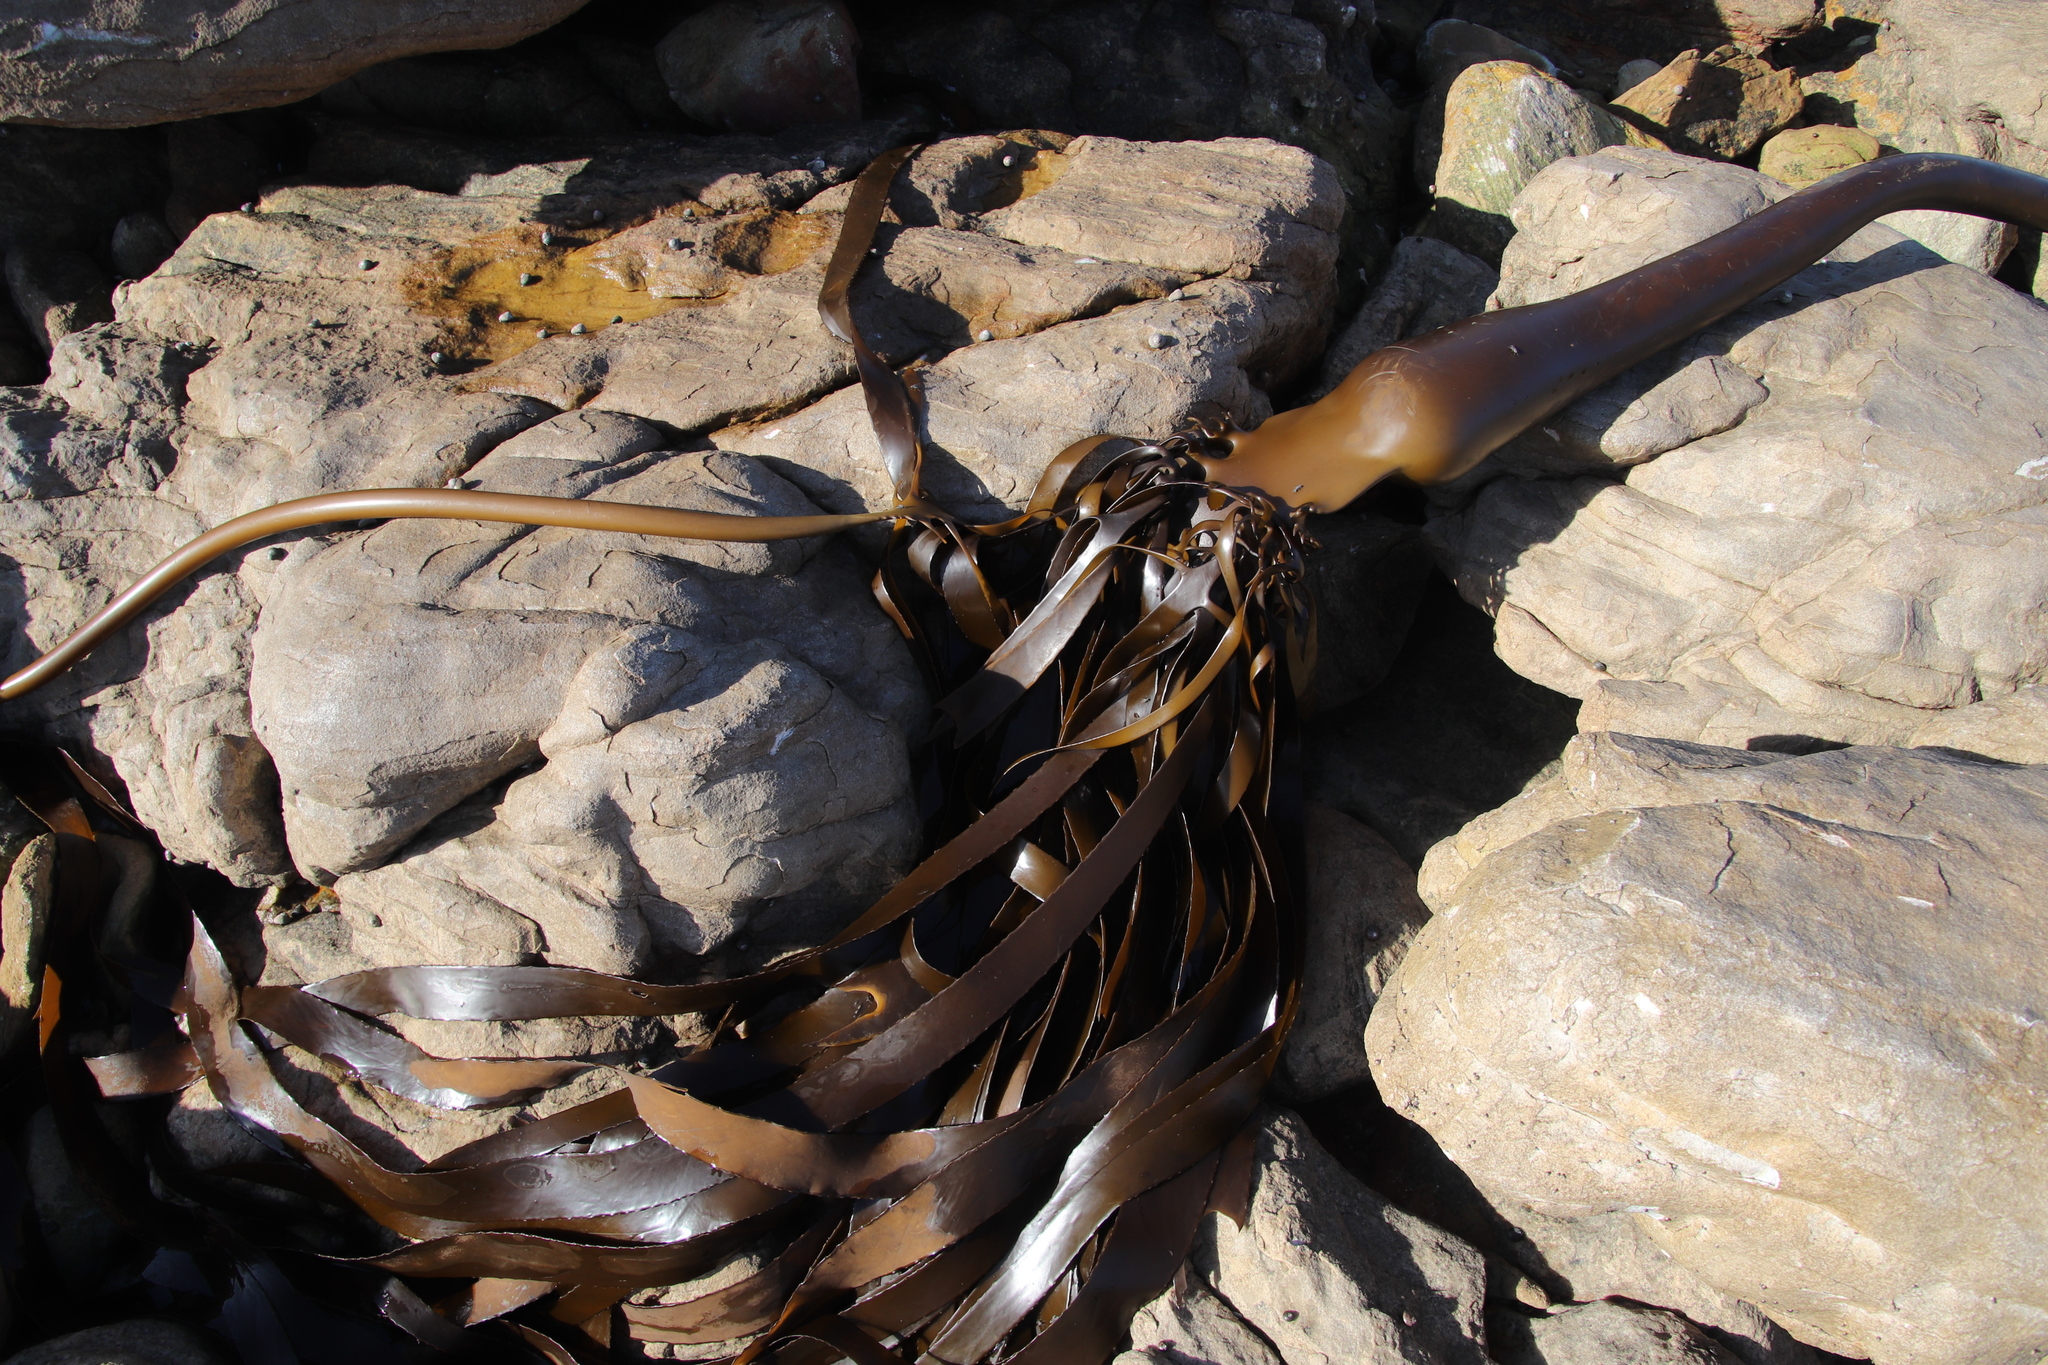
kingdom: Chromista
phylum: Ochrophyta
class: Phaeophyceae
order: Laminariales
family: Lessoniaceae
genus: Ecklonia
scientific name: Ecklonia
